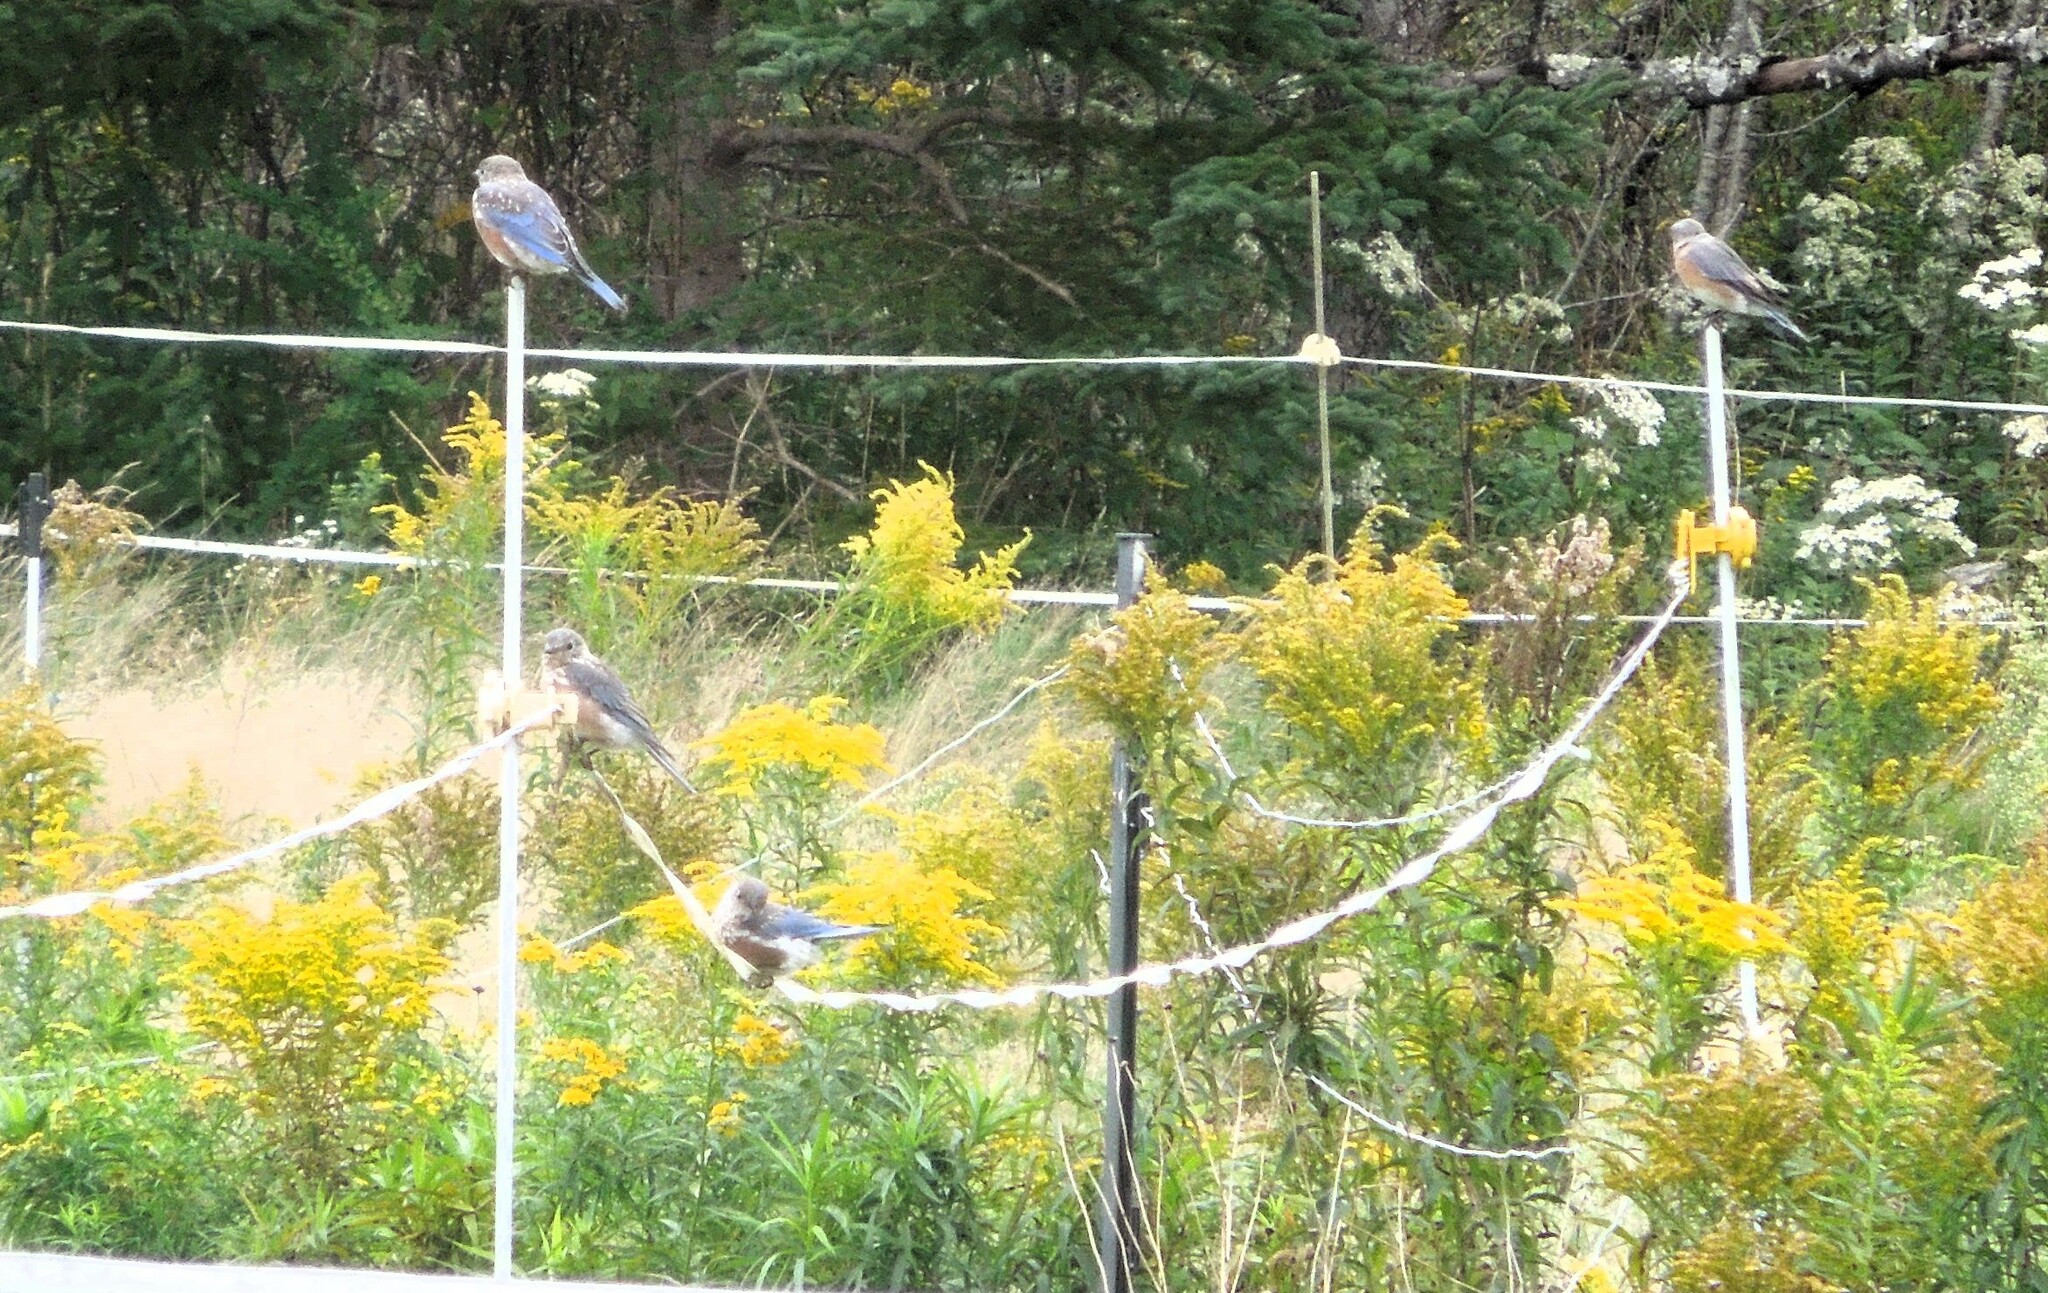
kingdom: Animalia
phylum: Chordata
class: Aves
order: Passeriformes
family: Turdidae
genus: Sialia
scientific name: Sialia sialis
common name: Eastern bluebird
